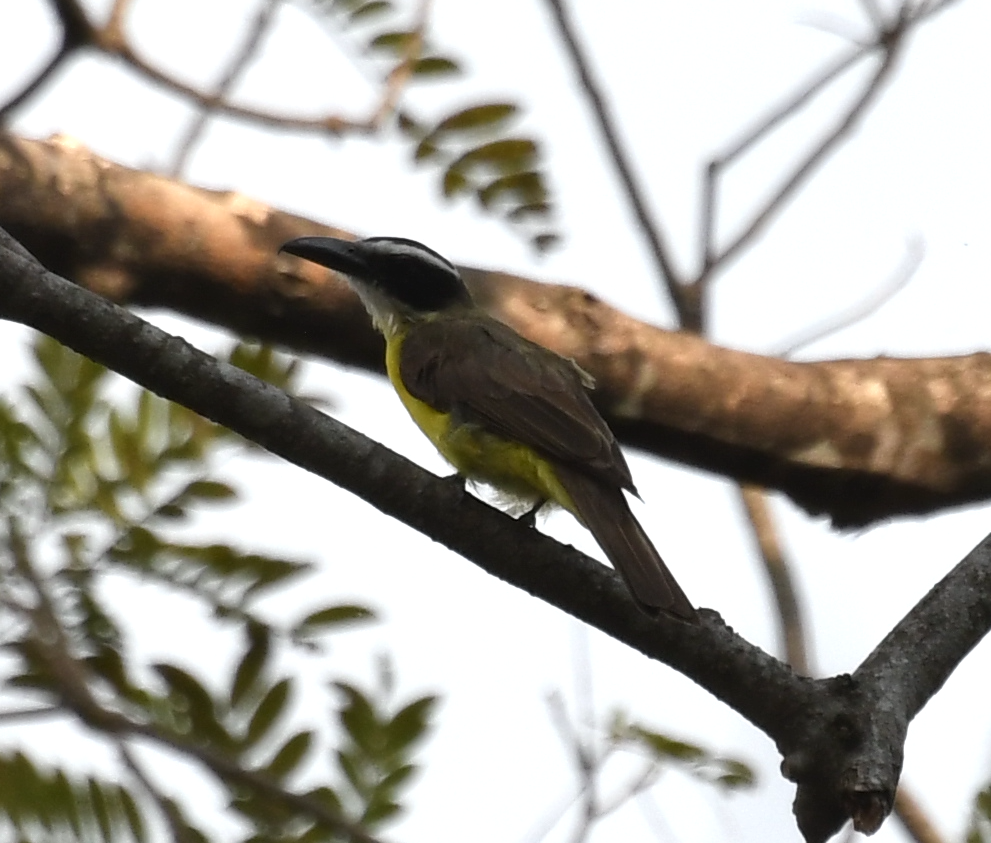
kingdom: Animalia
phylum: Chordata
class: Aves
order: Passeriformes
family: Tyrannidae
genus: Megarynchus
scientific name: Megarynchus pitangua
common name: Boat-billed flycatcher
